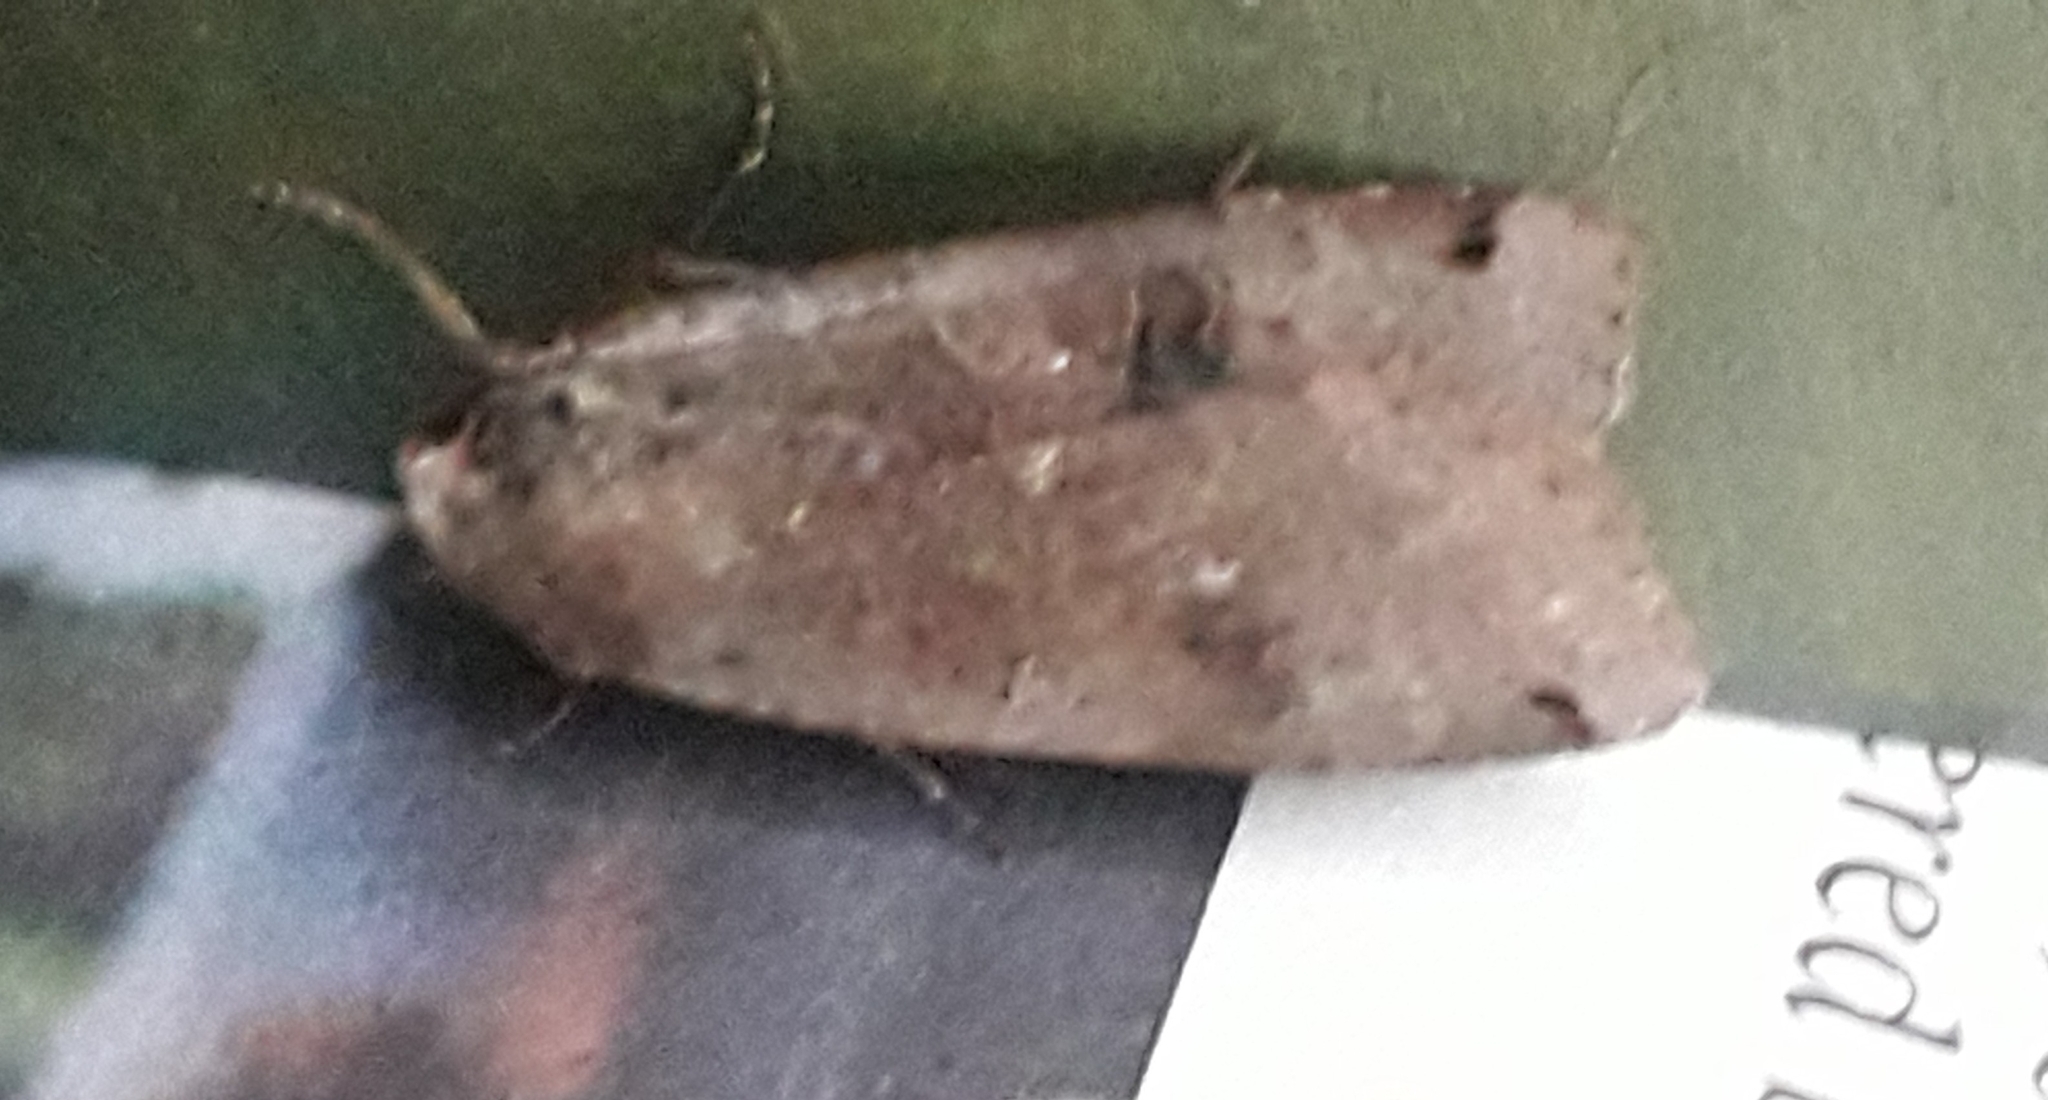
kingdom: Animalia
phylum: Arthropoda
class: Insecta
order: Lepidoptera
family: Noctuidae
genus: Noctua
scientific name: Noctua pronuba
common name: Large yellow underwing
